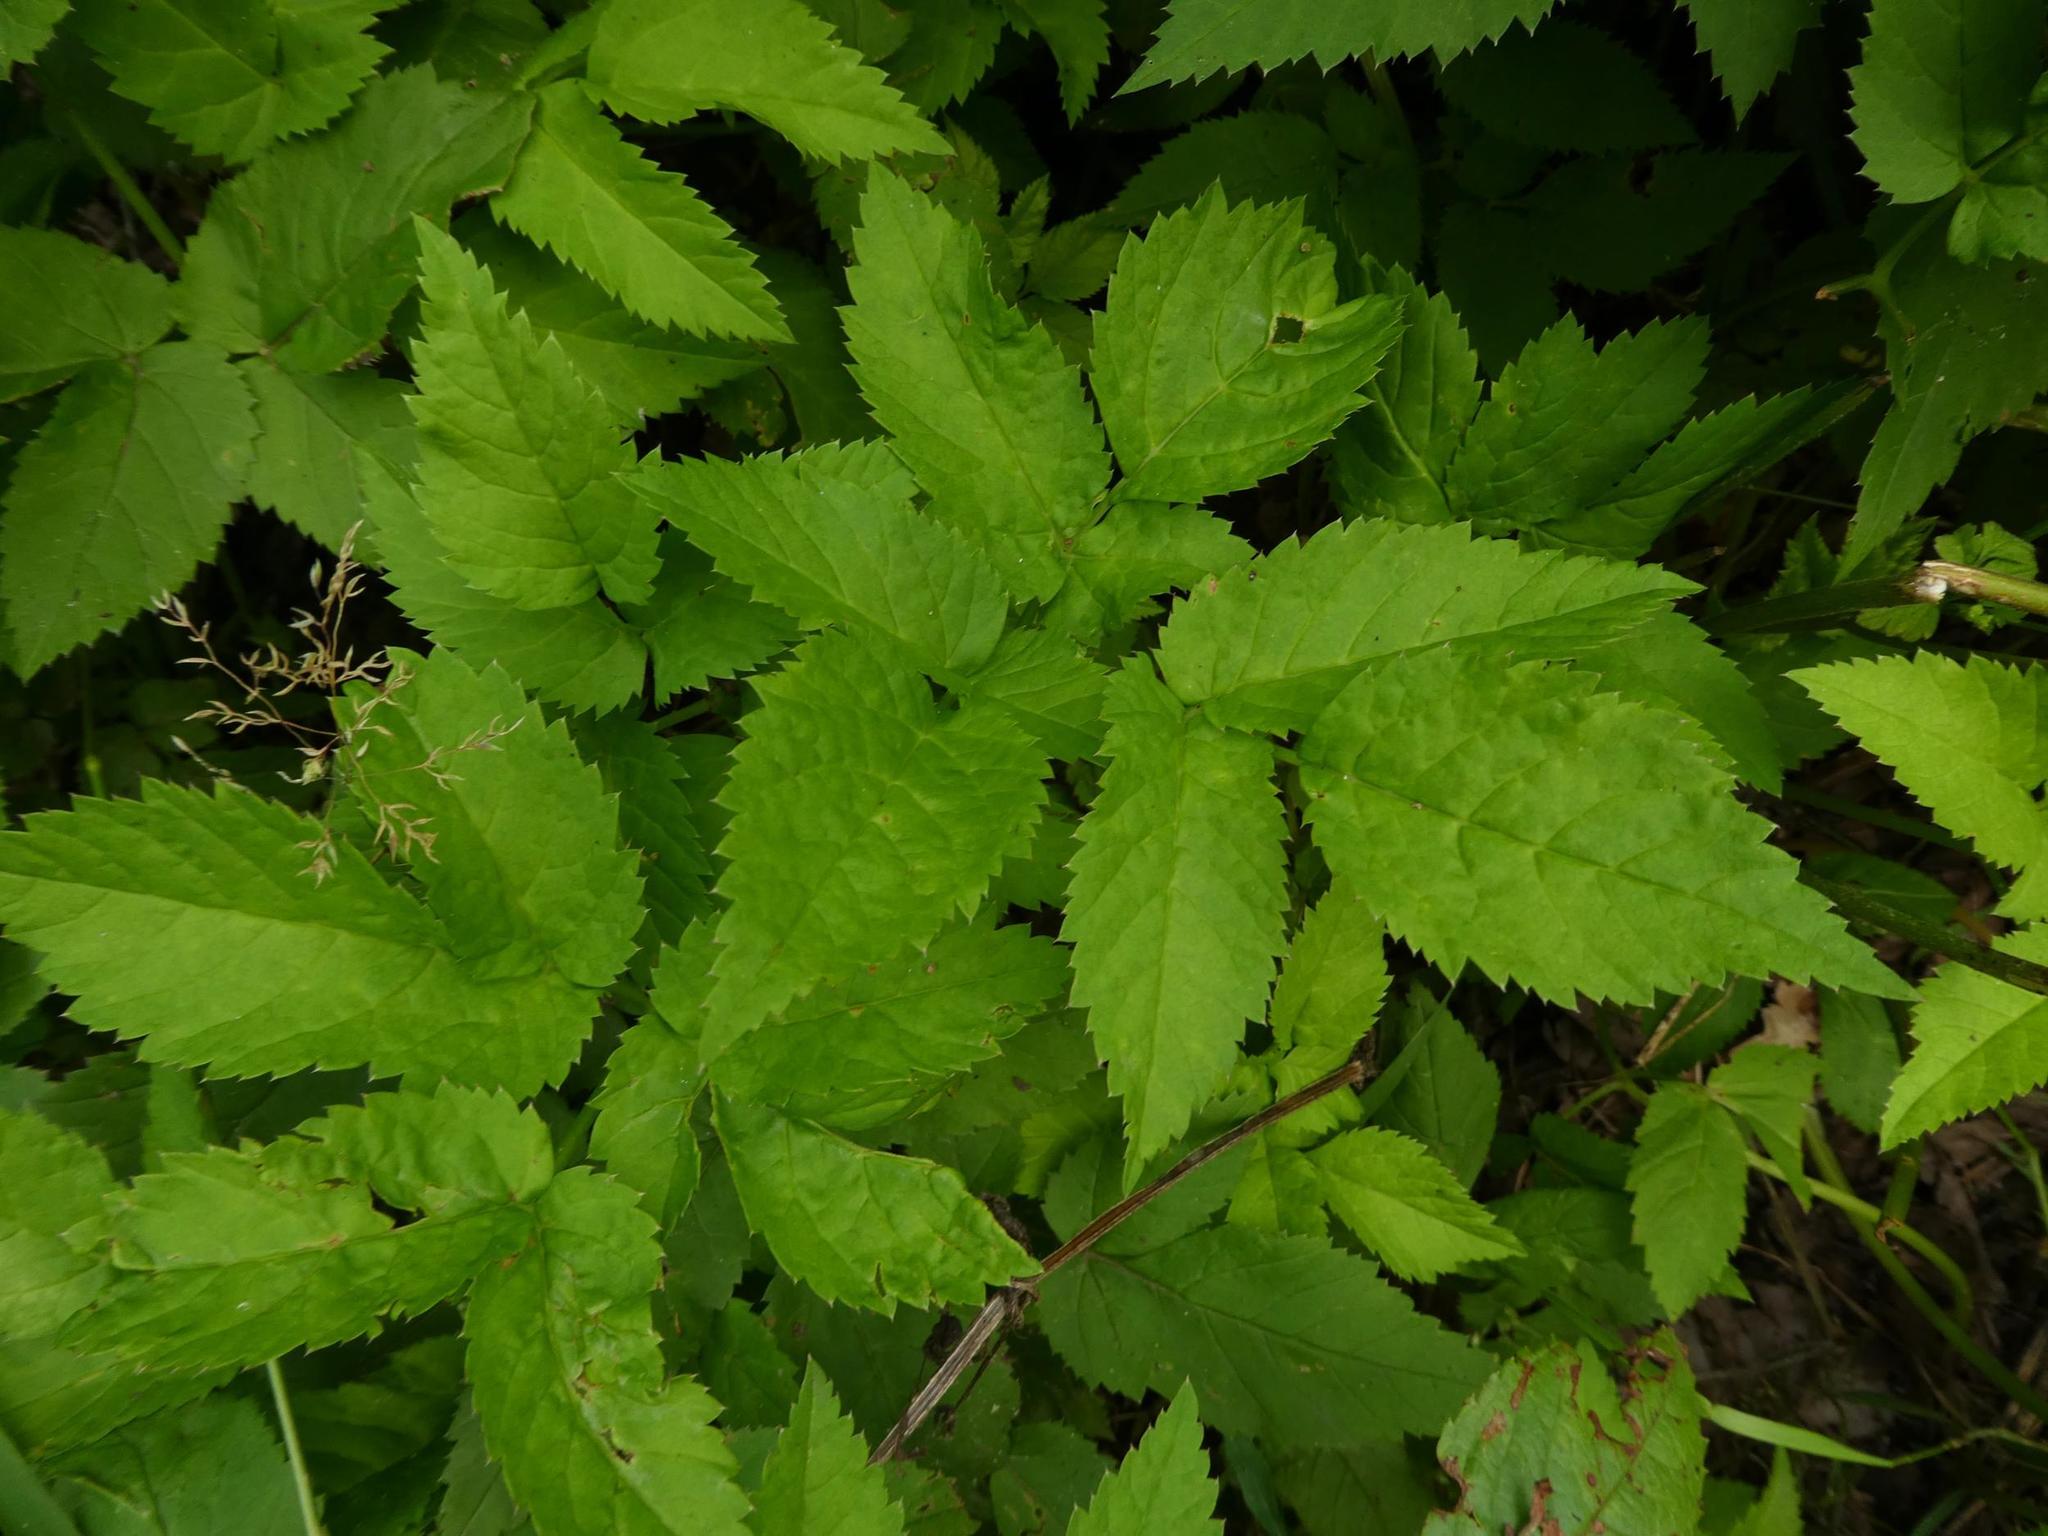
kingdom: Plantae
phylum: Tracheophyta
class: Magnoliopsida
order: Apiales
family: Apiaceae
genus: Aegopodium
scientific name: Aegopodium podagraria
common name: Ground-elder
